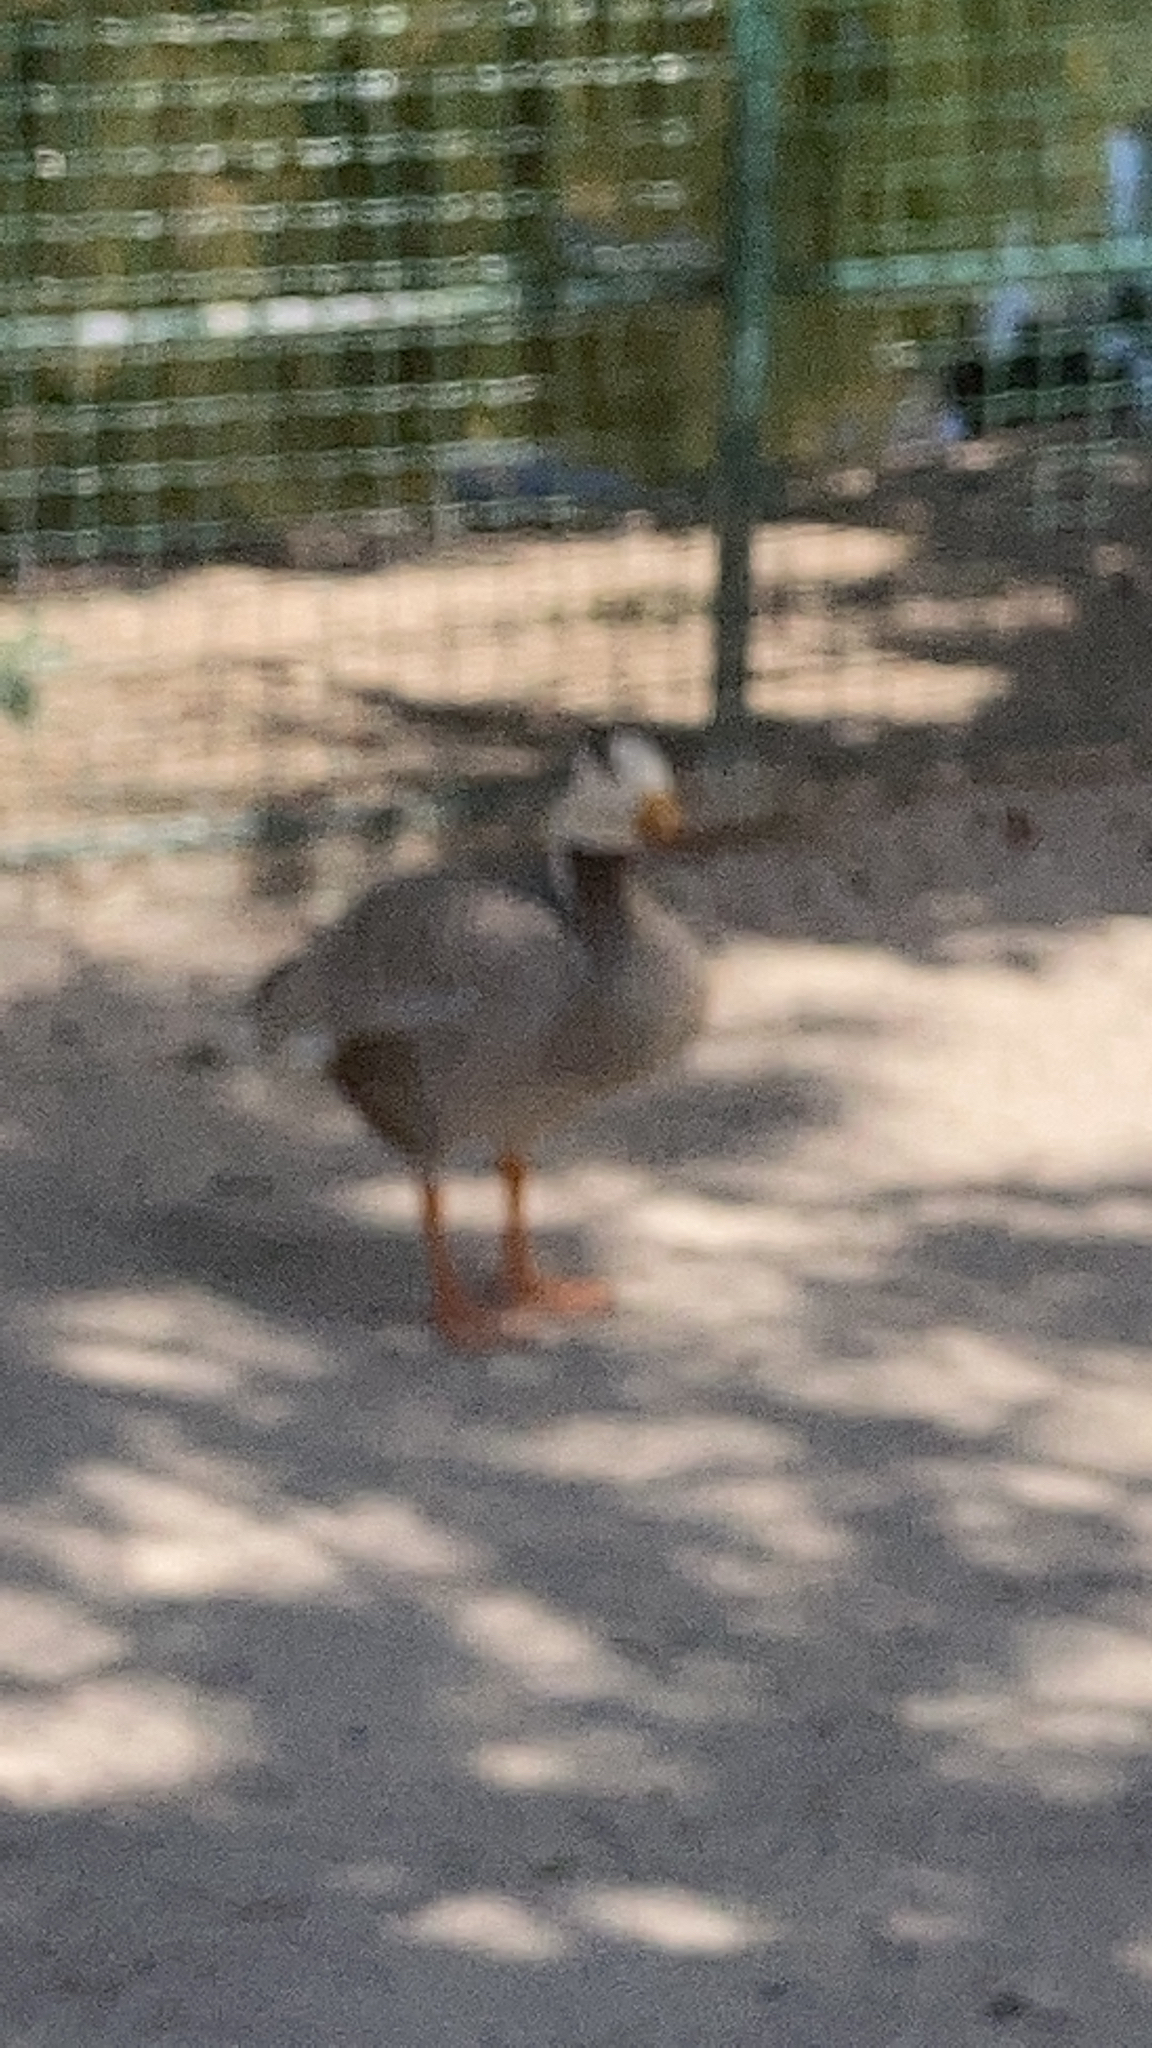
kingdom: Animalia
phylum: Chordata
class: Aves
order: Anseriformes
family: Anatidae
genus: Anser
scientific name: Anser indicus
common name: Bar-headed goose
